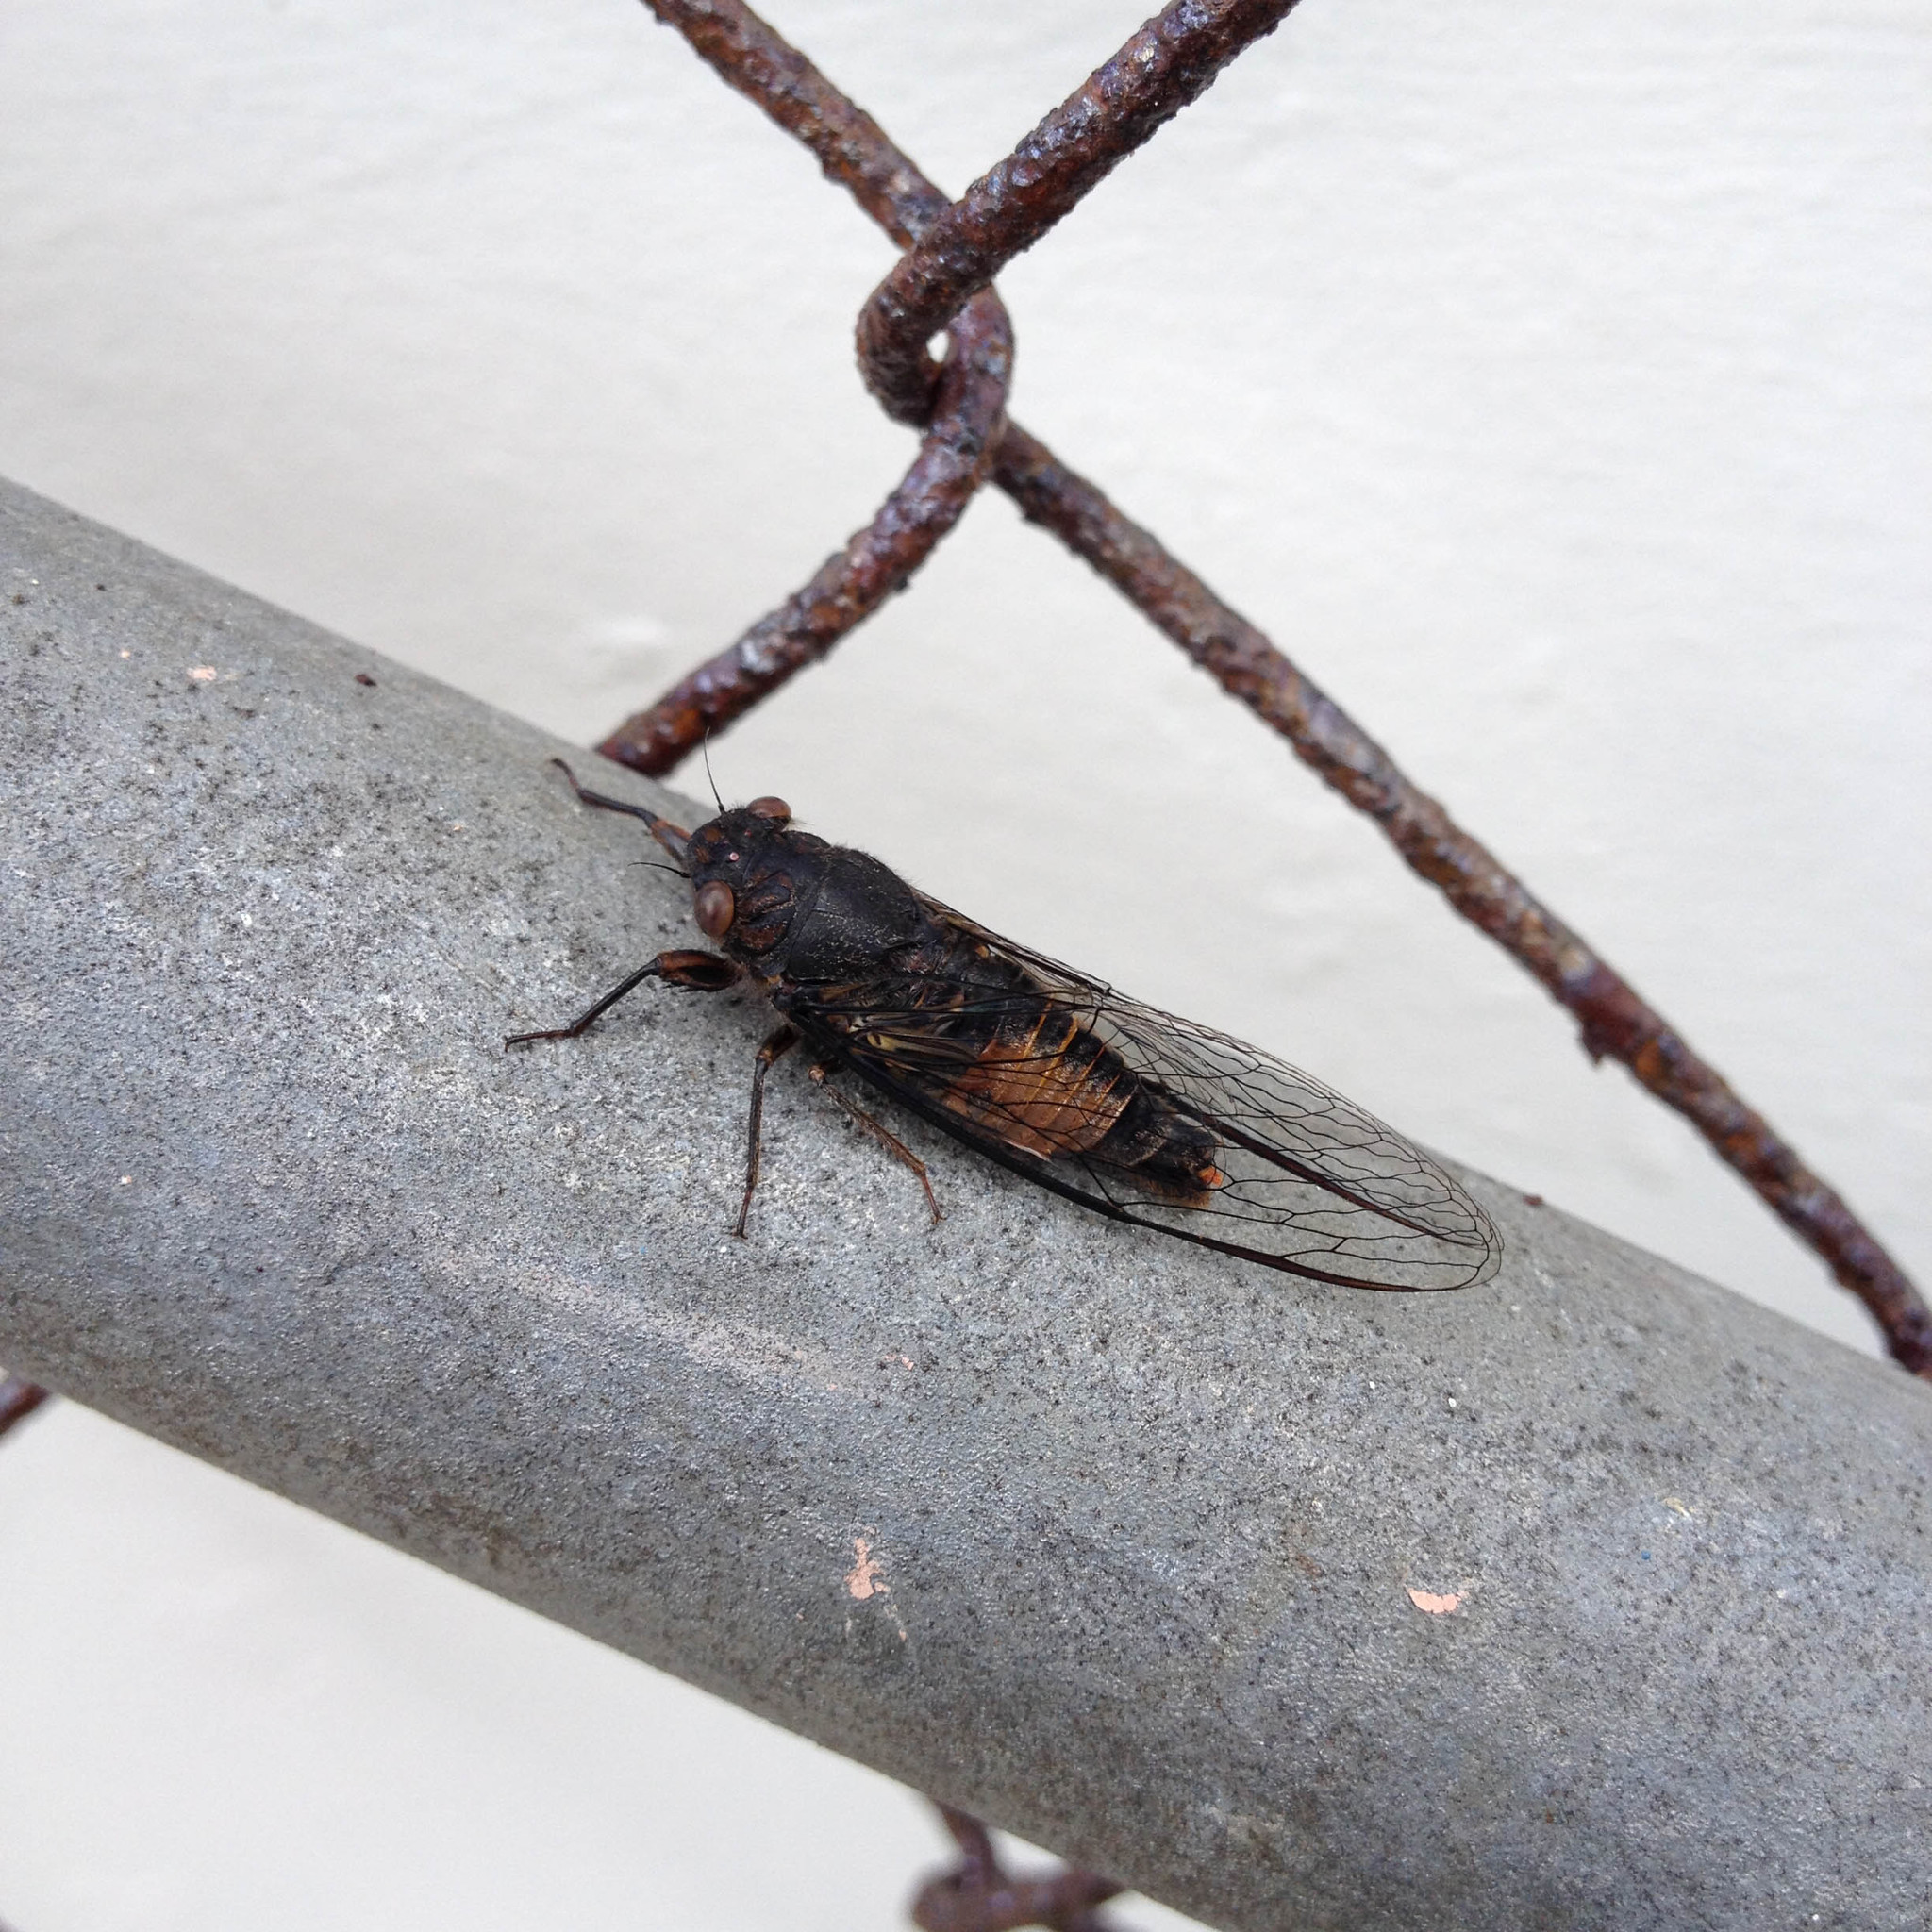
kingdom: Animalia
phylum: Arthropoda
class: Insecta
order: Hemiptera
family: Cicadidae
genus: Yoyetta
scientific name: Yoyetta repetens
